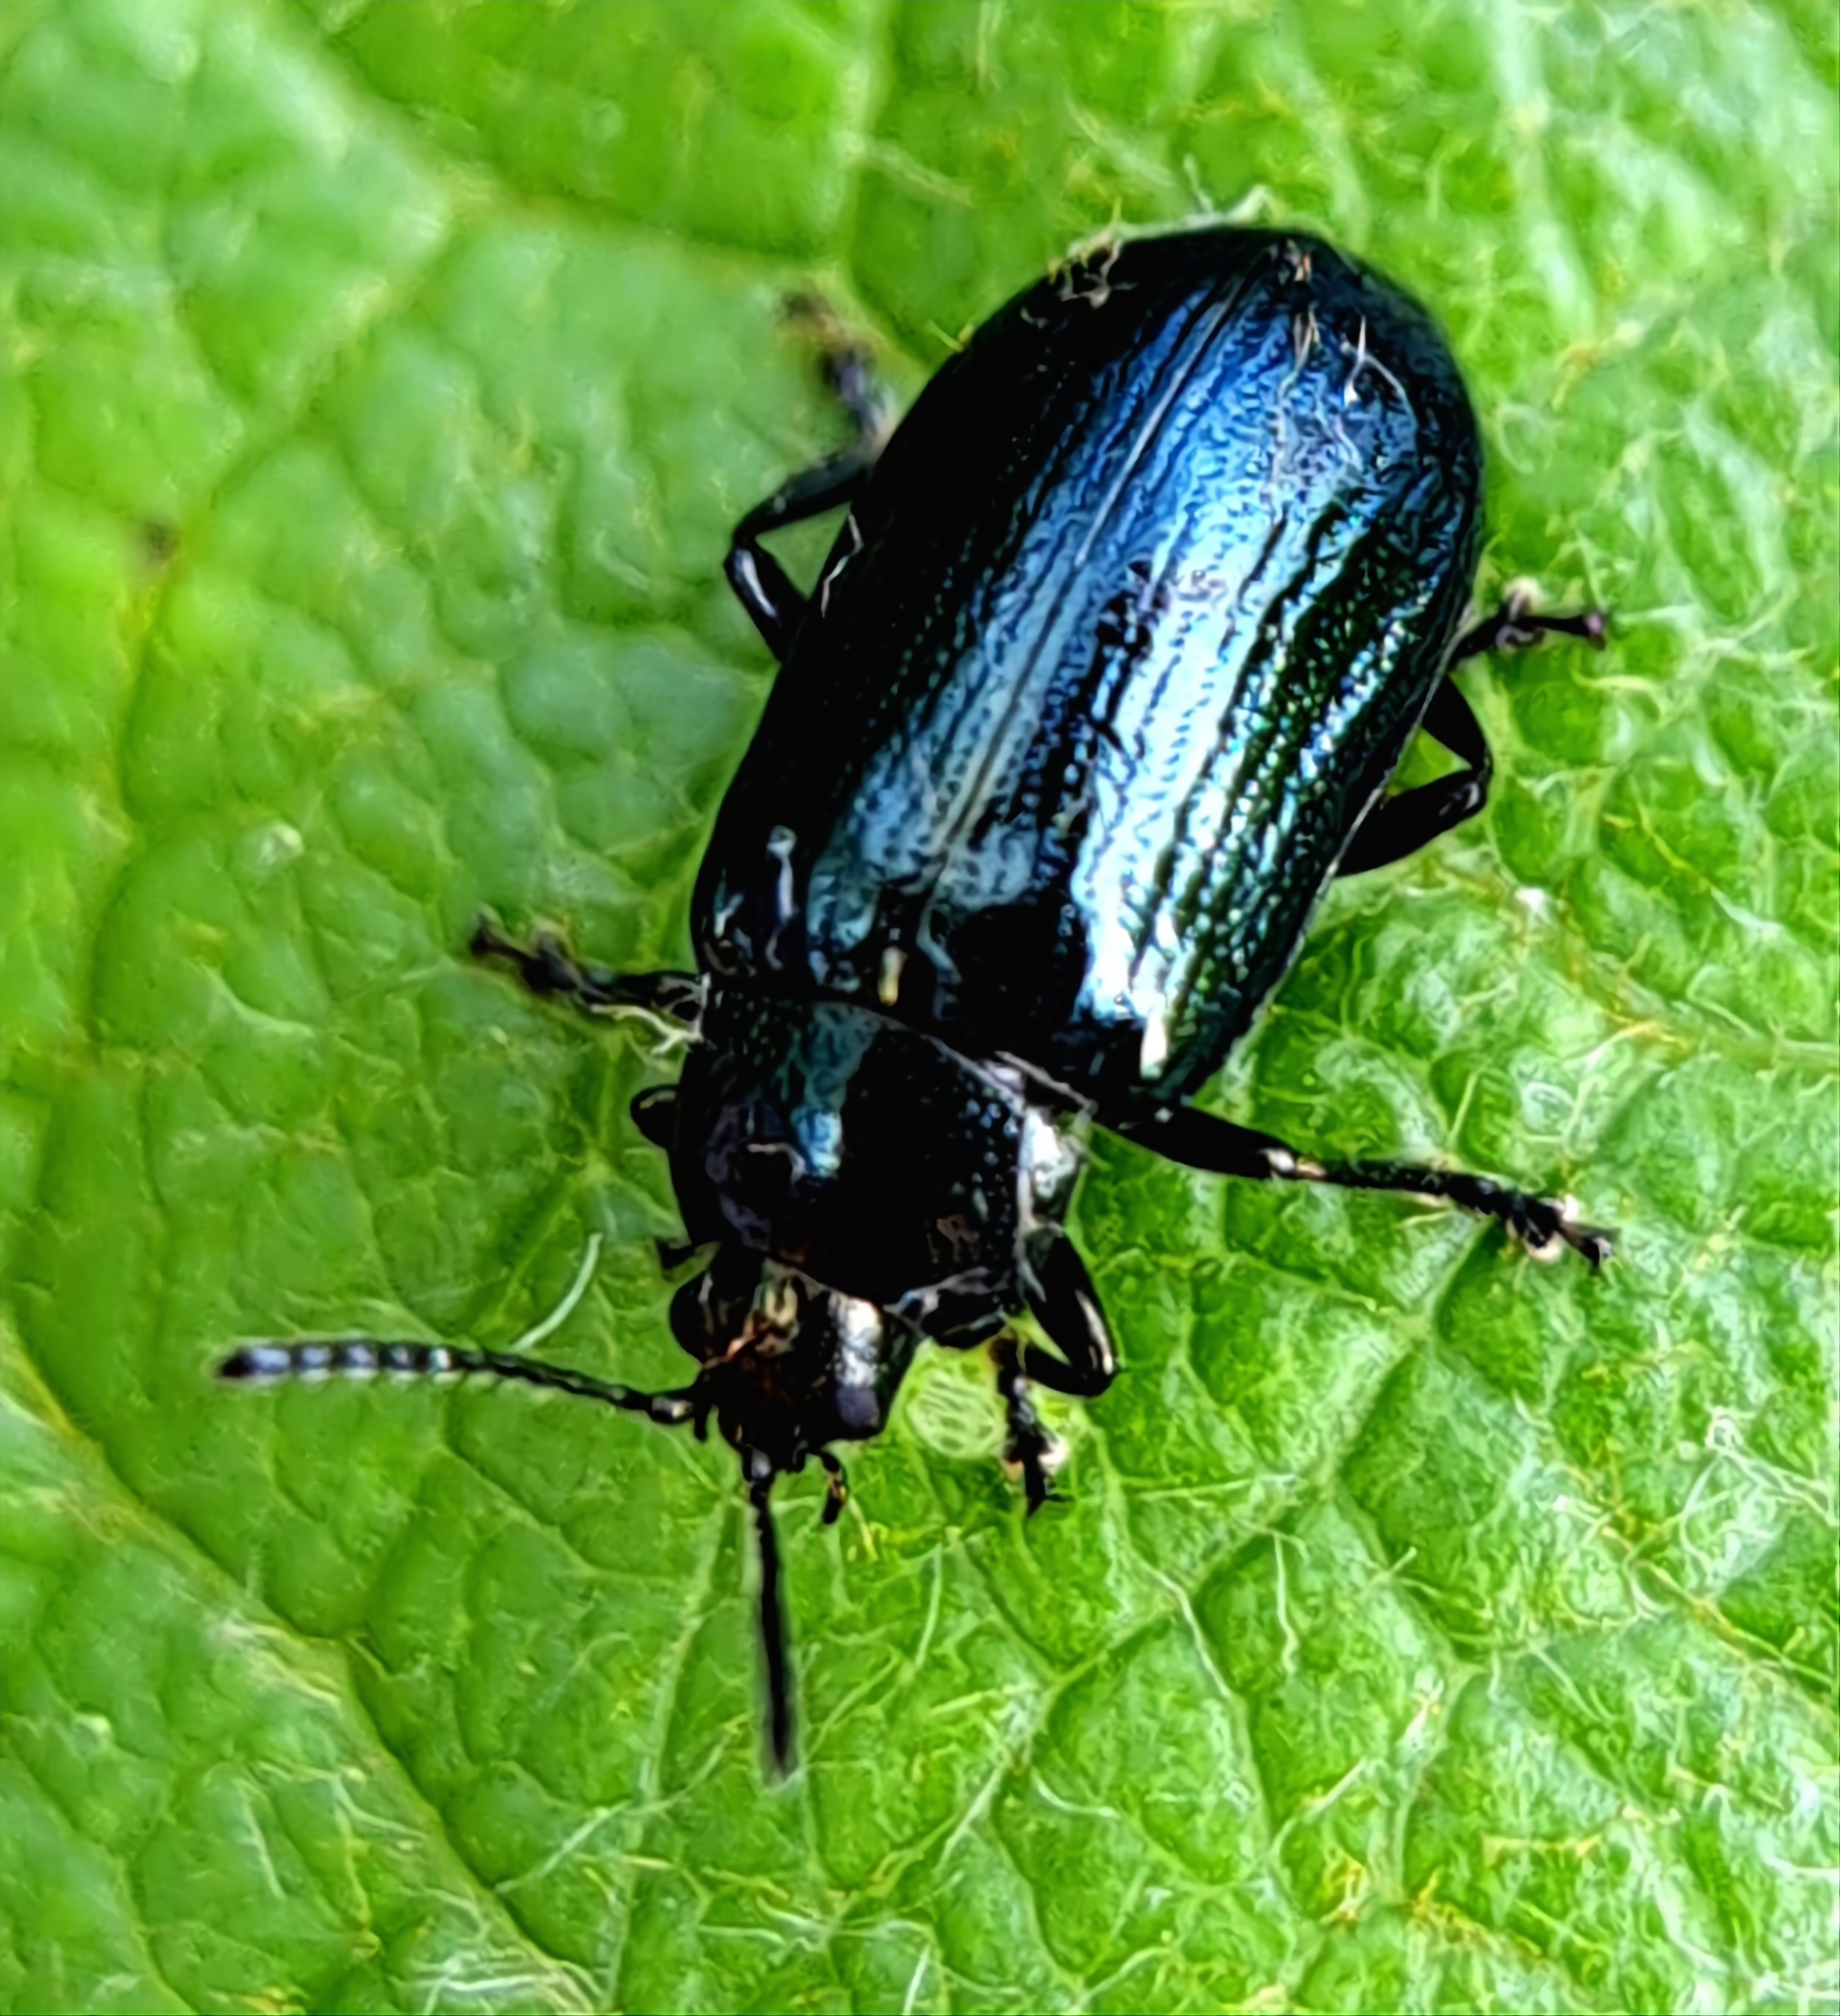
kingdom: Animalia
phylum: Arthropoda
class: Insecta
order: Coleoptera
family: Chrysomelidae
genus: Phratora
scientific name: Phratora vulgatissima
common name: Blue willow beetle
